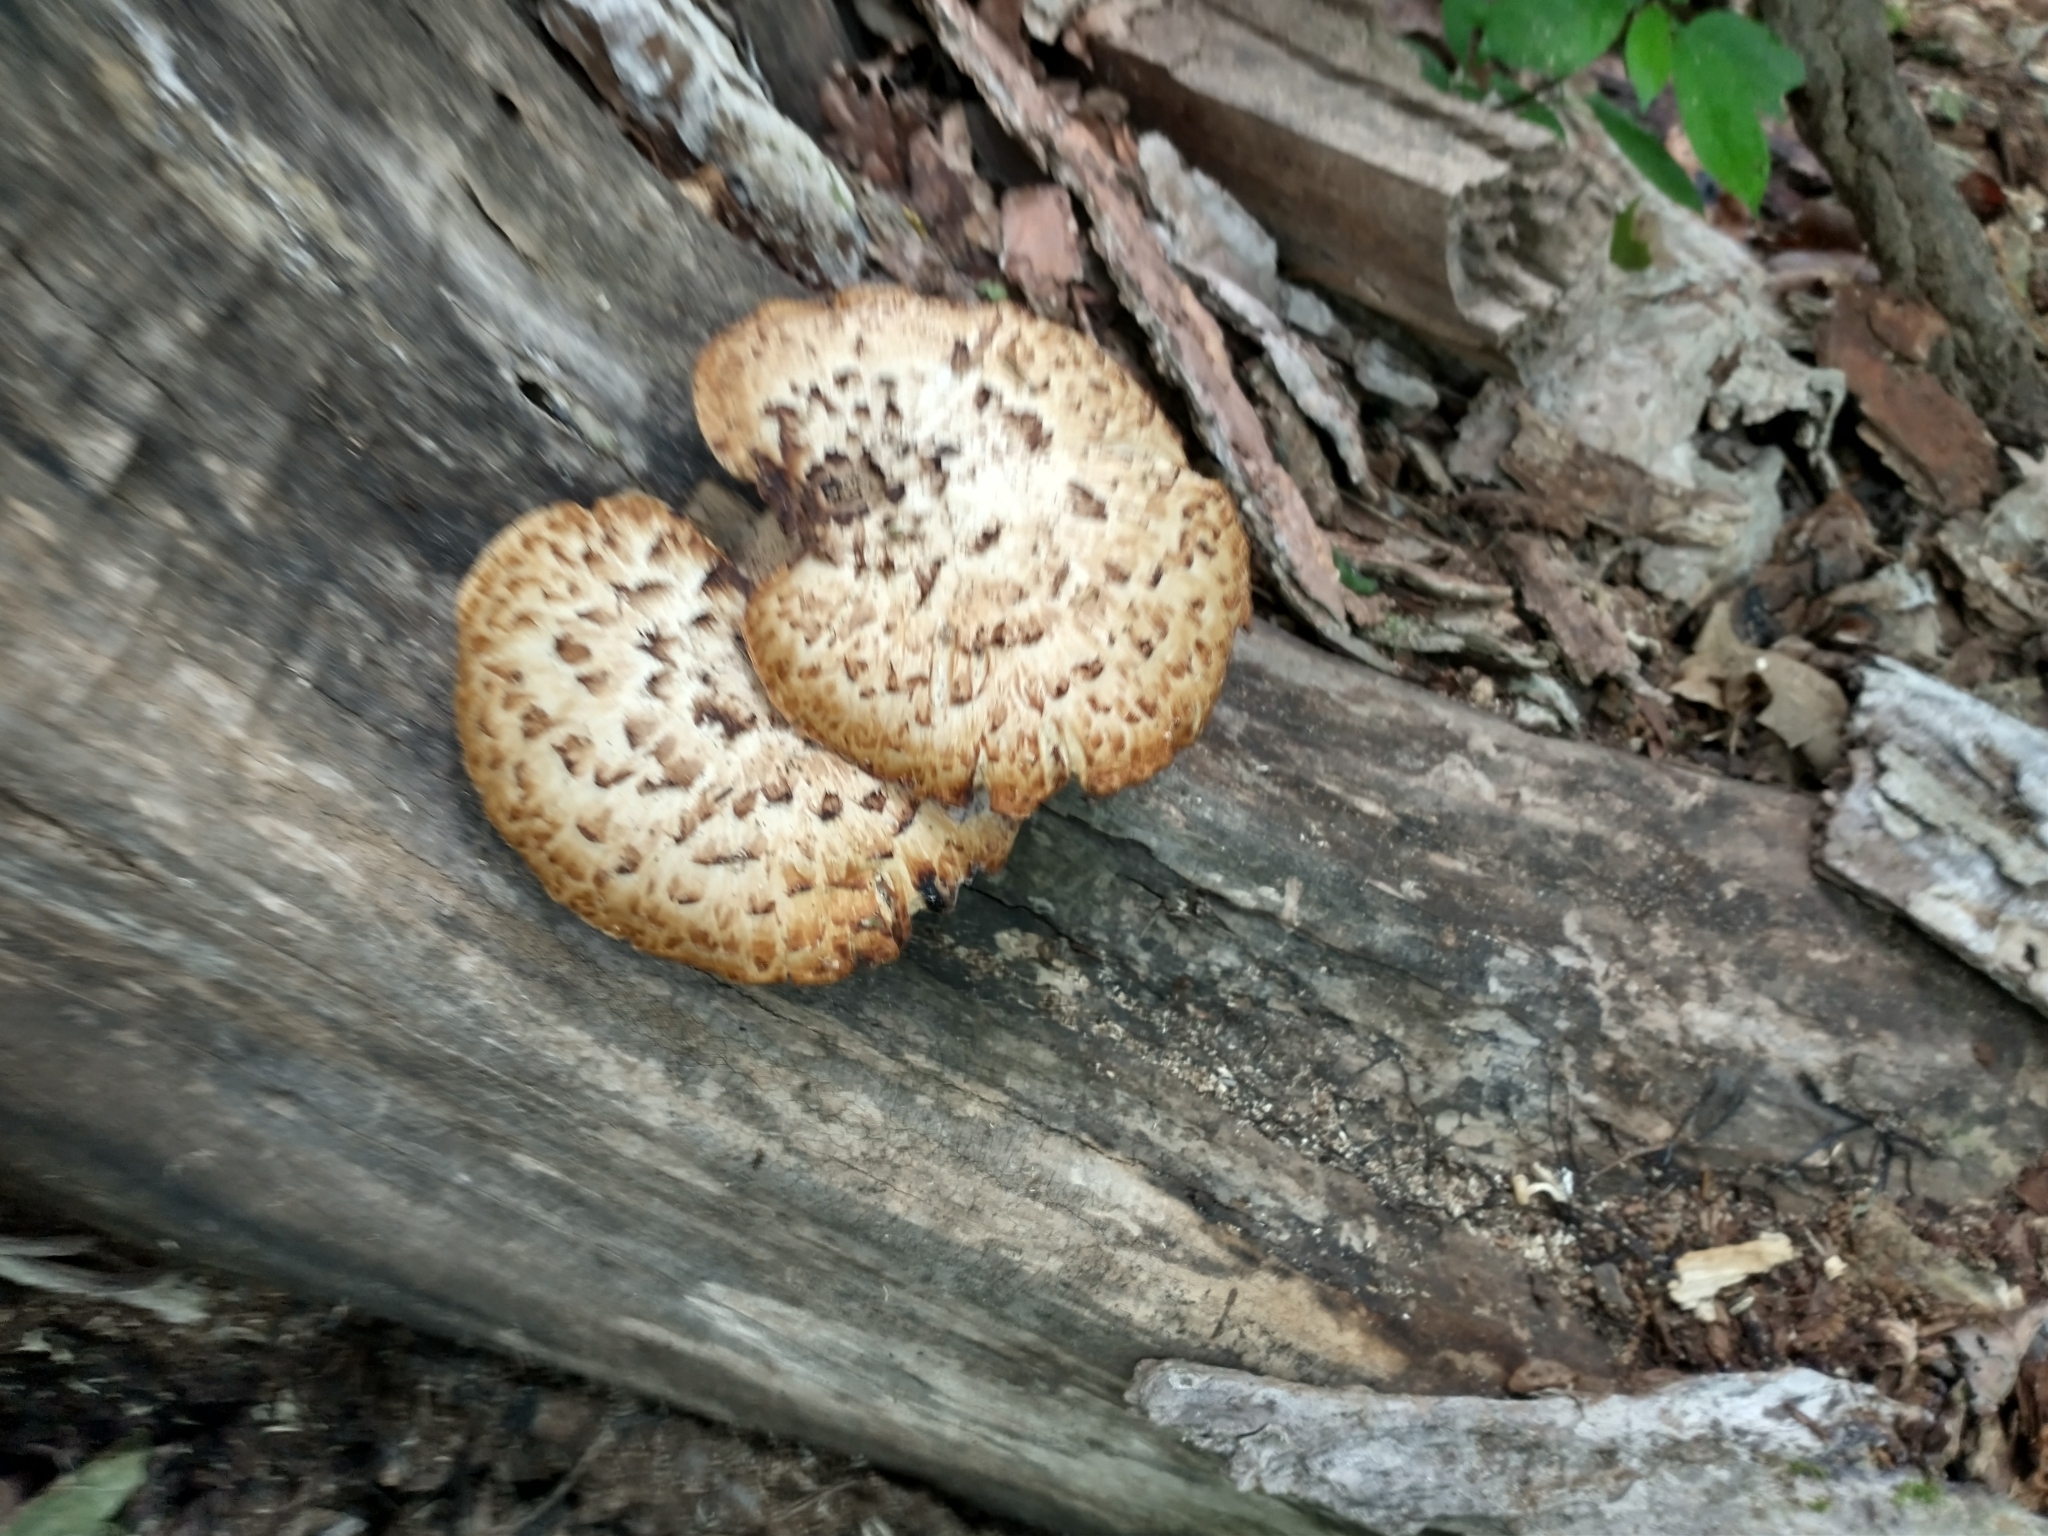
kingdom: Fungi
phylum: Basidiomycota
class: Agaricomycetes
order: Polyporales
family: Polyporaceae
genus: Cerioporus
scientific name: Cerioporus squamosus
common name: Dryad's saddle
